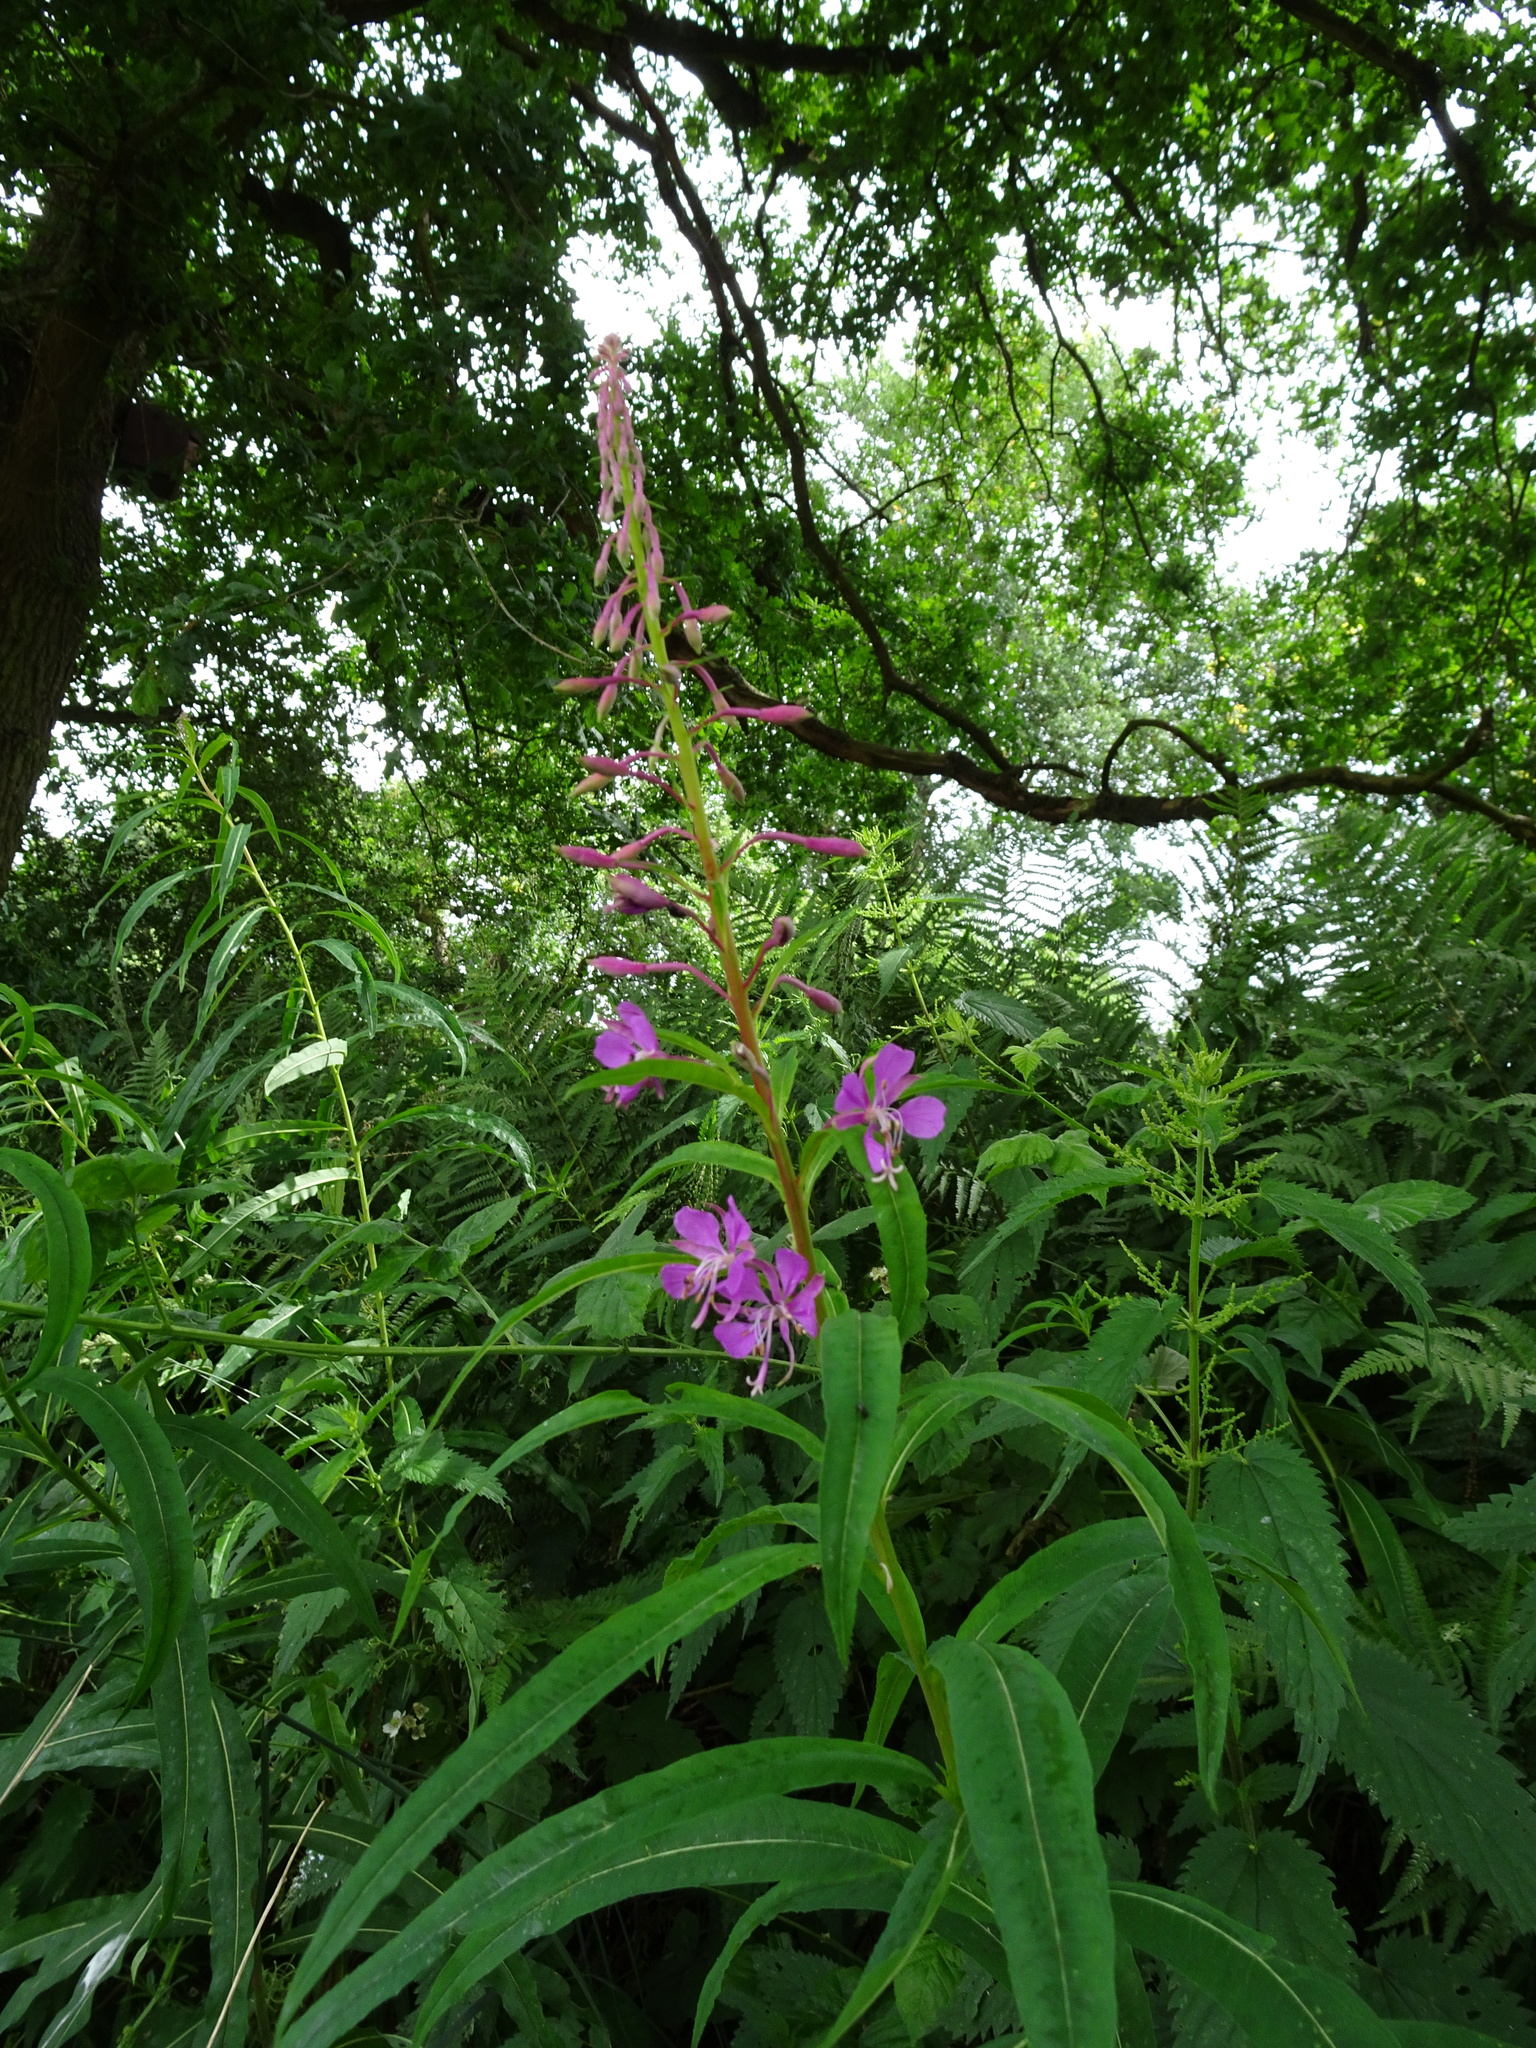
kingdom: Plantae
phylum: Tracheophyta
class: Magnoliopsida
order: Myrtales
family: Onagraceae
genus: Chamaenerion
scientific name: Chamaenerion angustifolium
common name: Fireweed
